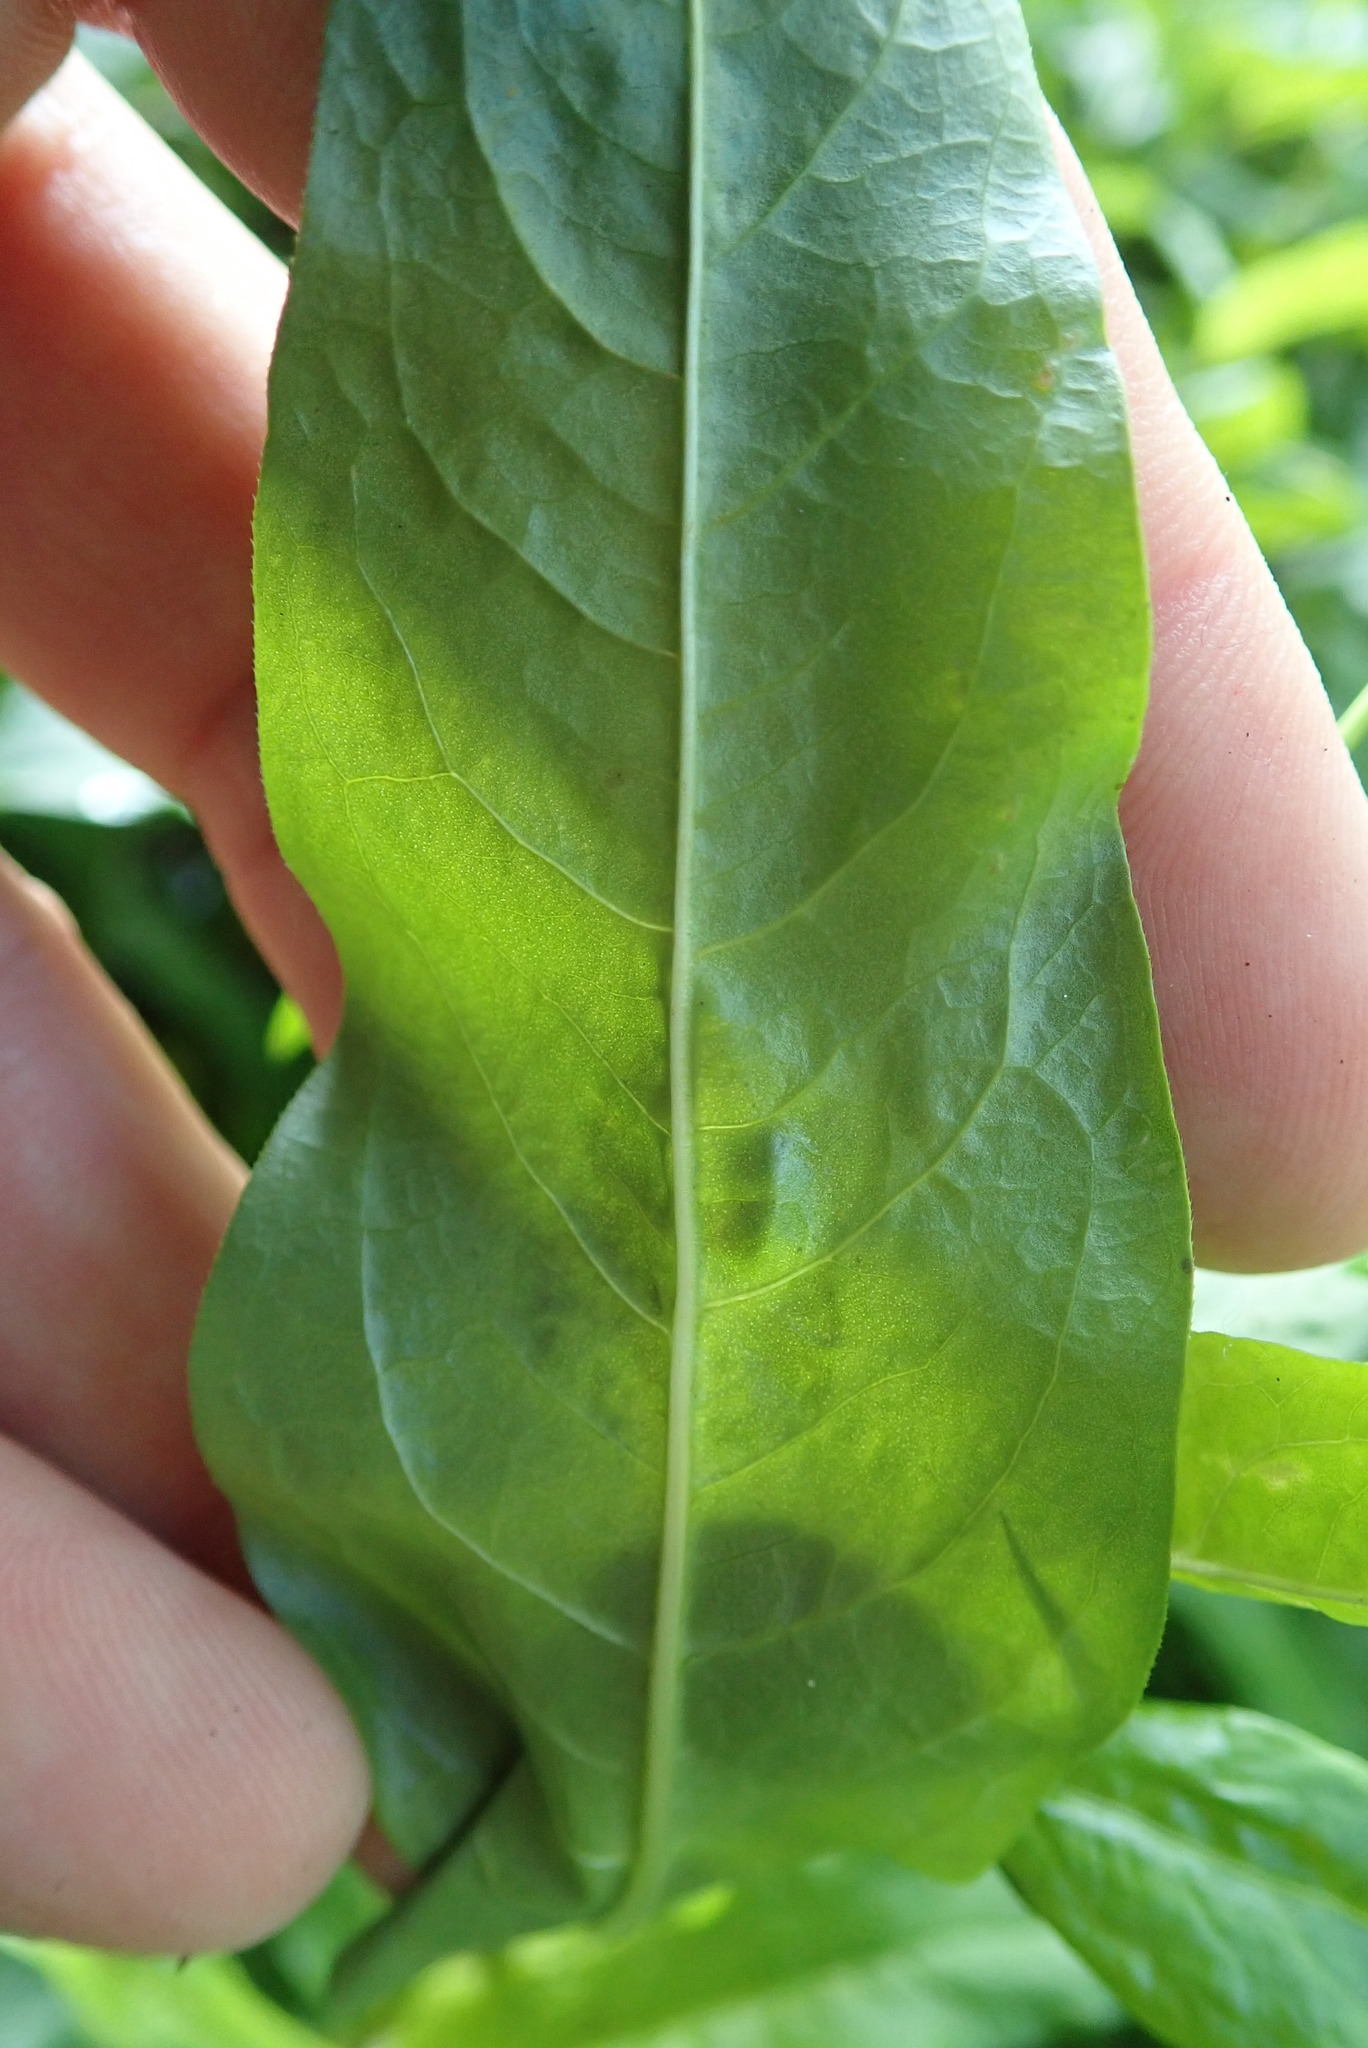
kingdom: Plantae
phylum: Tracheophyta
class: Magnoliopsida
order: Caryophyllales
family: Polygonaceae
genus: Persicaria
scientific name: Persicaria hydropiperoides
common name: Swamp smartweed
